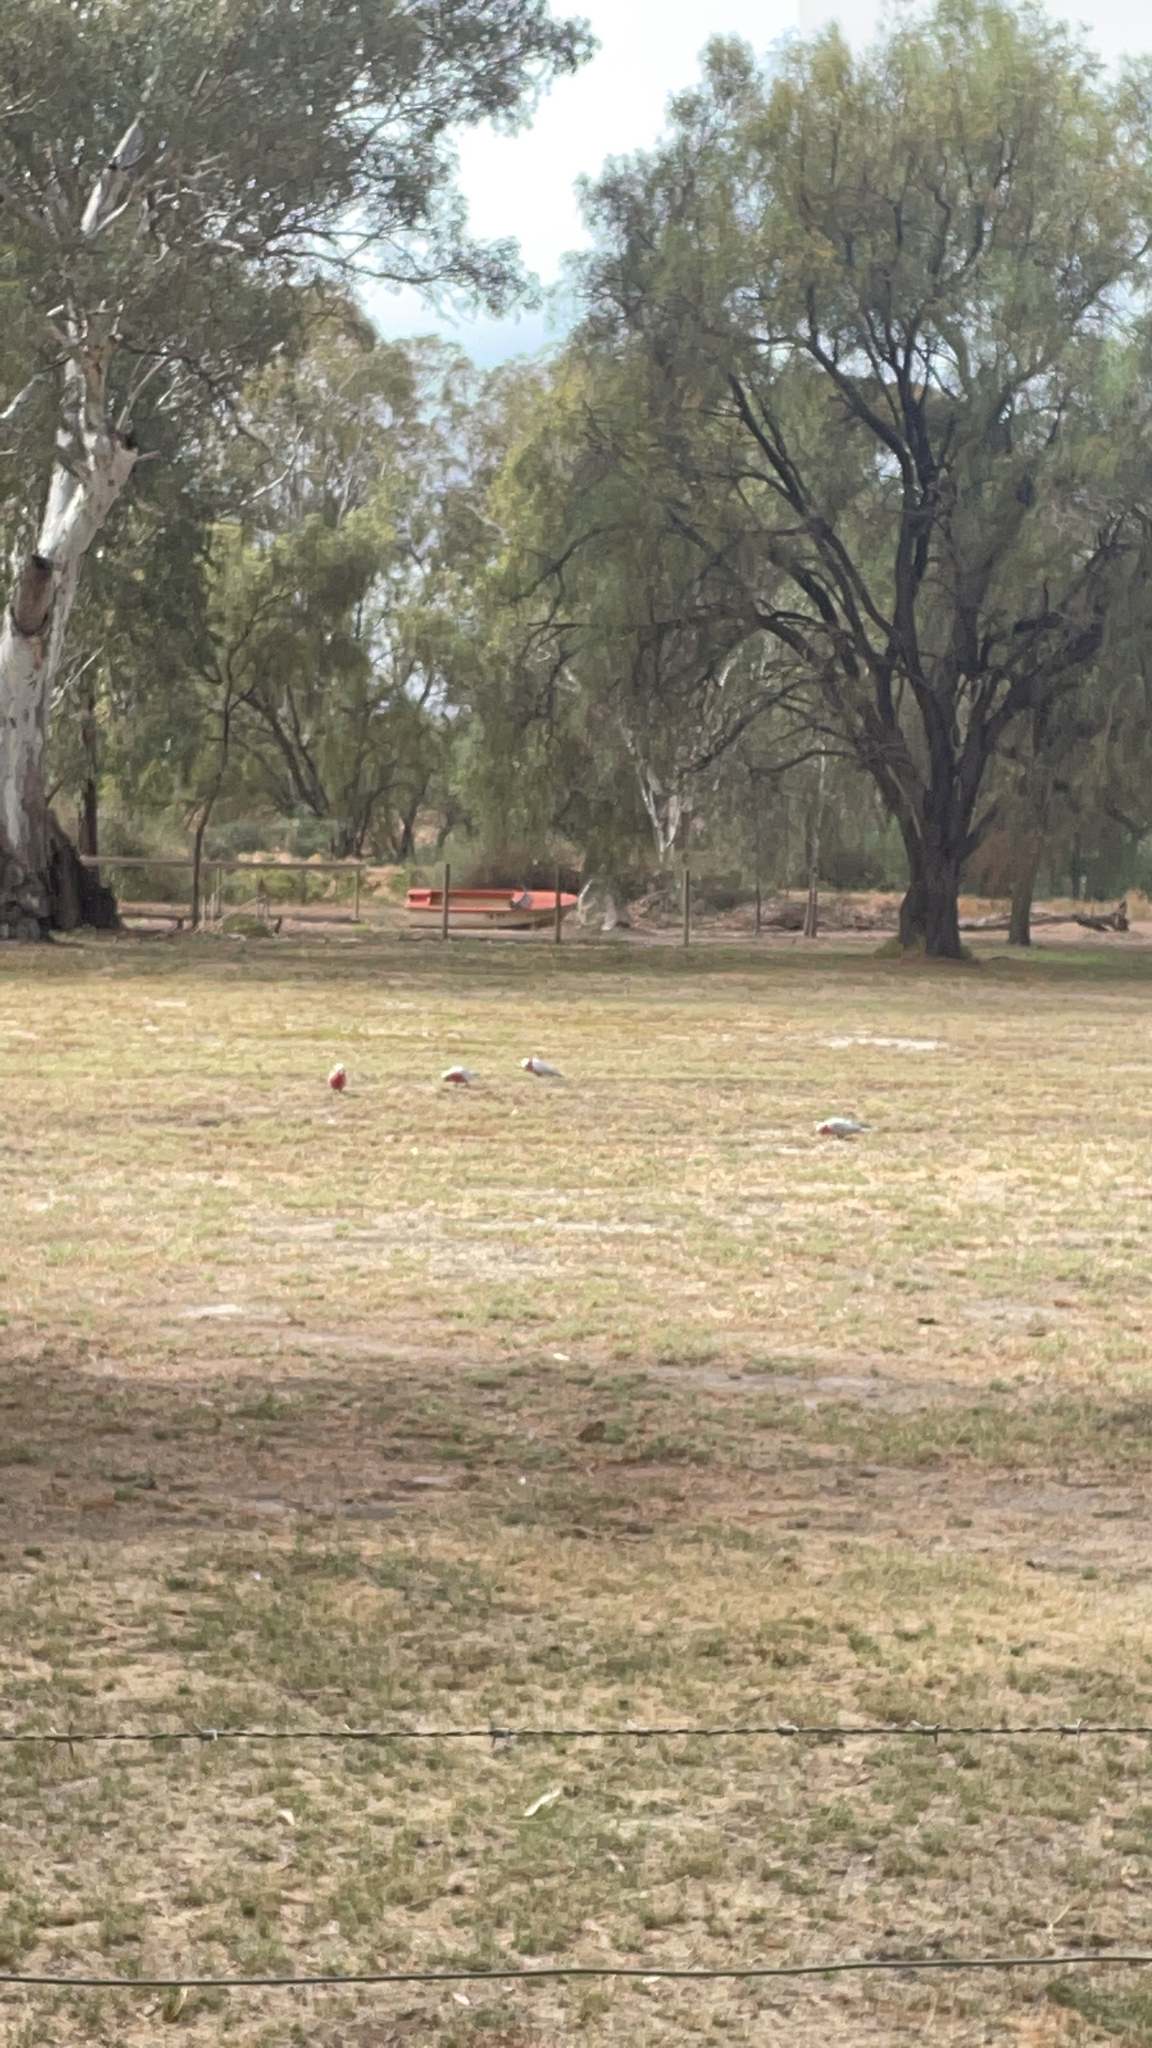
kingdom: Animalia
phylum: Chordata
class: Aves
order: Psittaciformes
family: Psittacidae
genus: Eolophus
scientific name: Eolophus roseicapilla
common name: Galah
